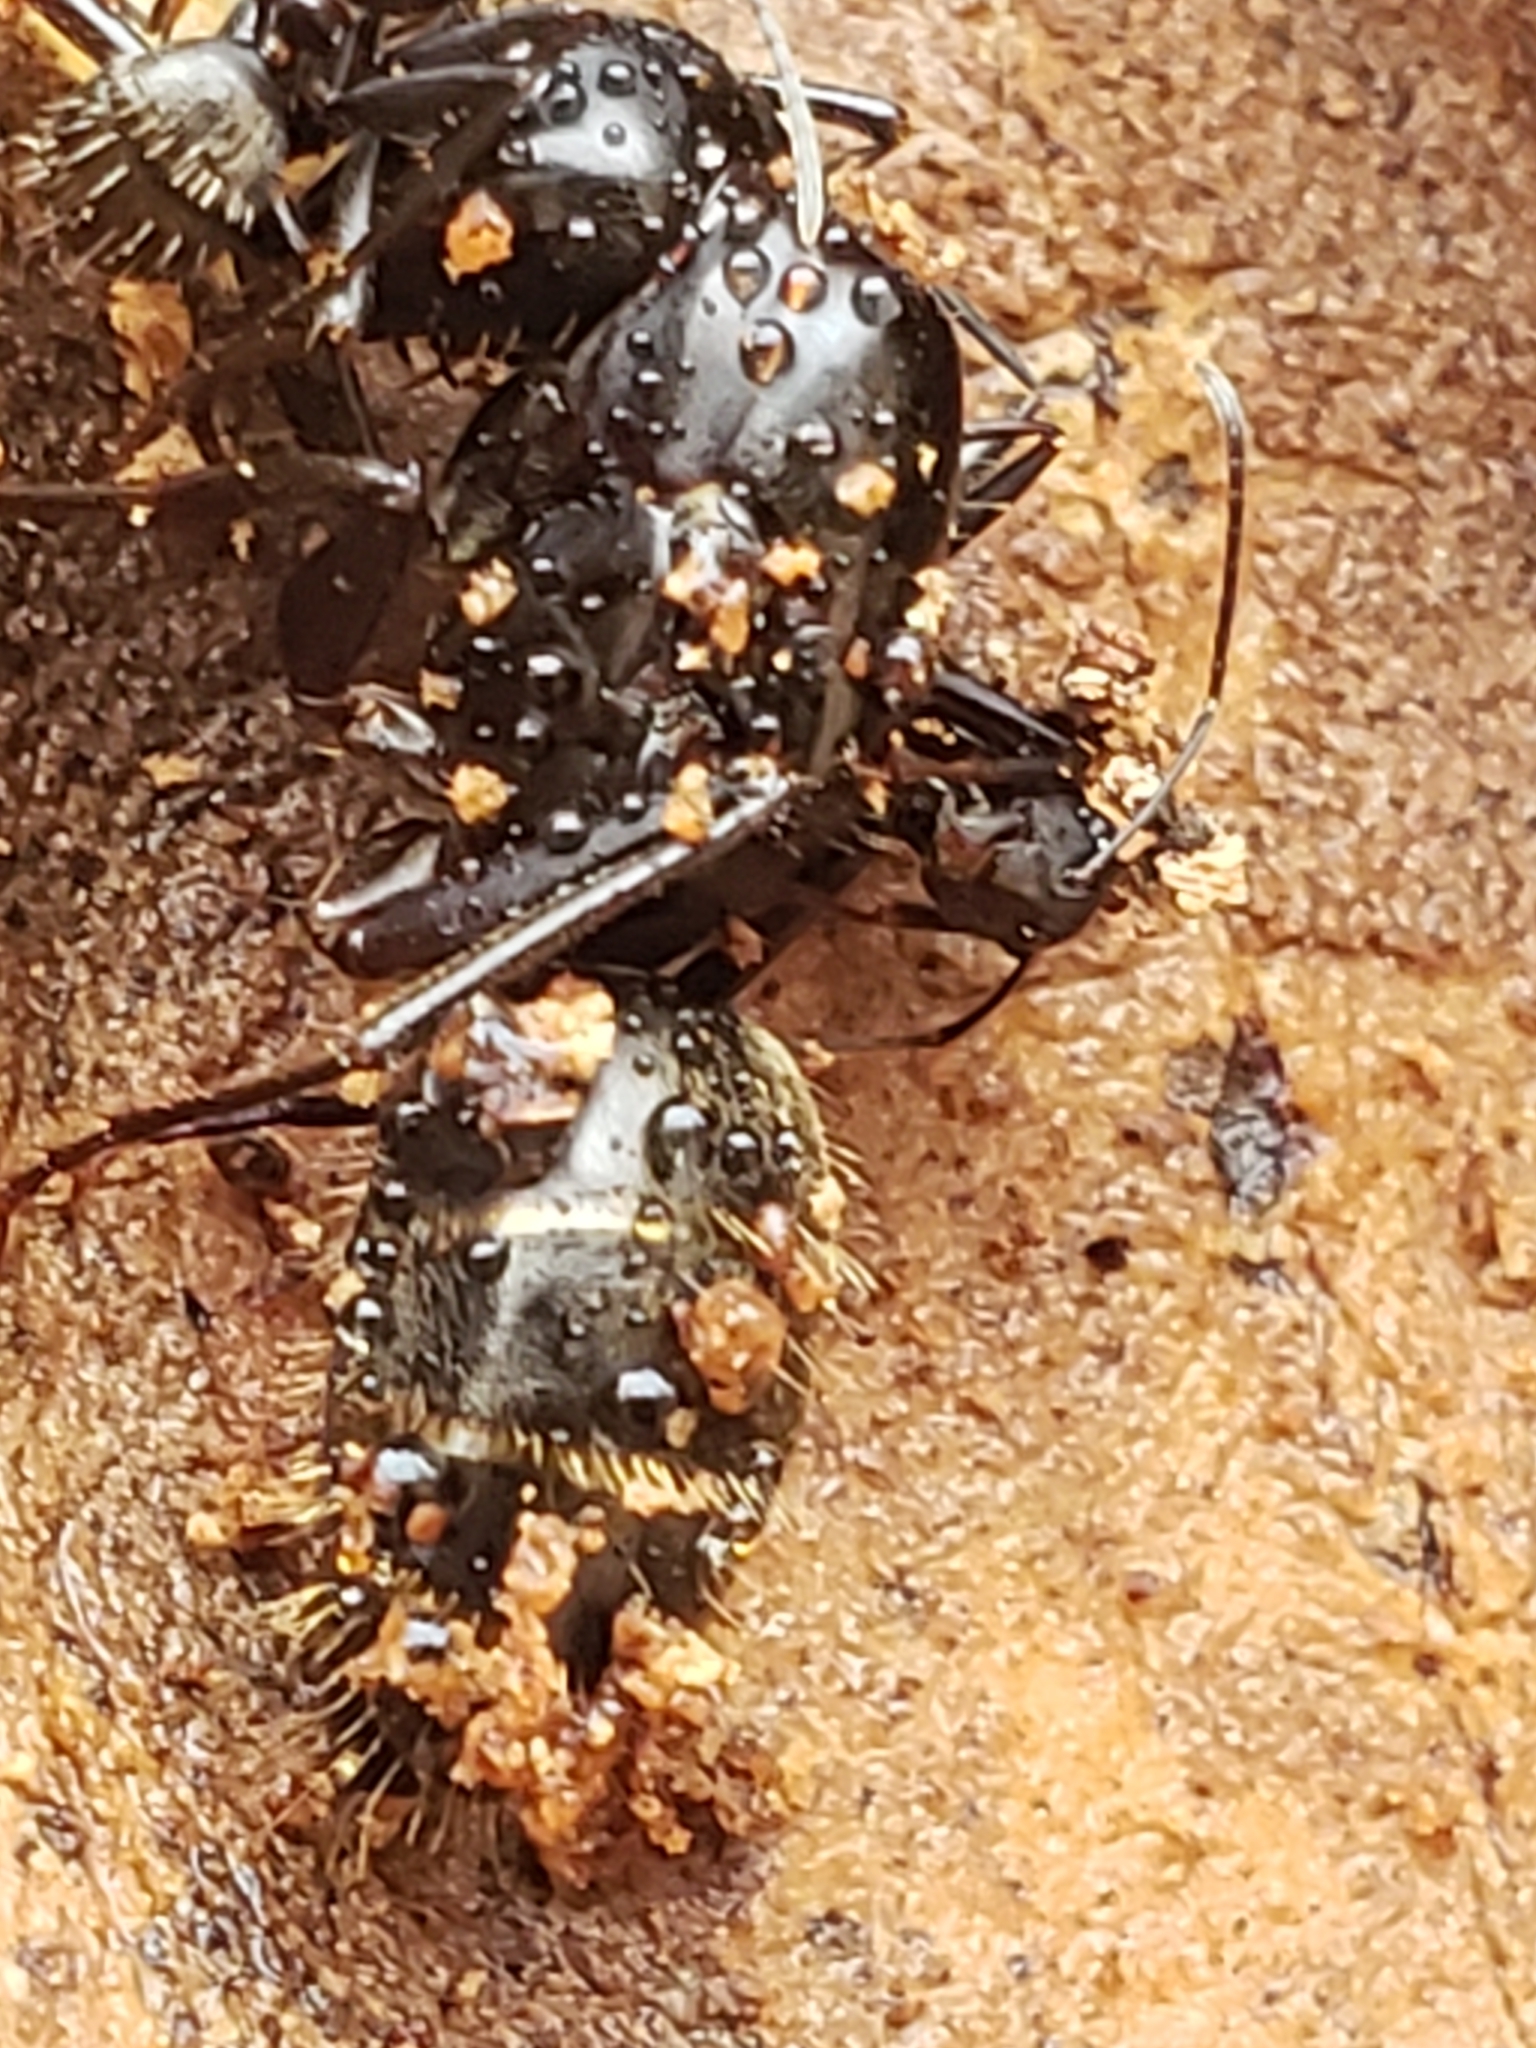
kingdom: Animalia
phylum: Arthropoda
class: Insecta
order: Hymenoptera
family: Formicidae
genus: Camponotus
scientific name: Camponotus pennsylvanicus
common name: Black carpenter ant
